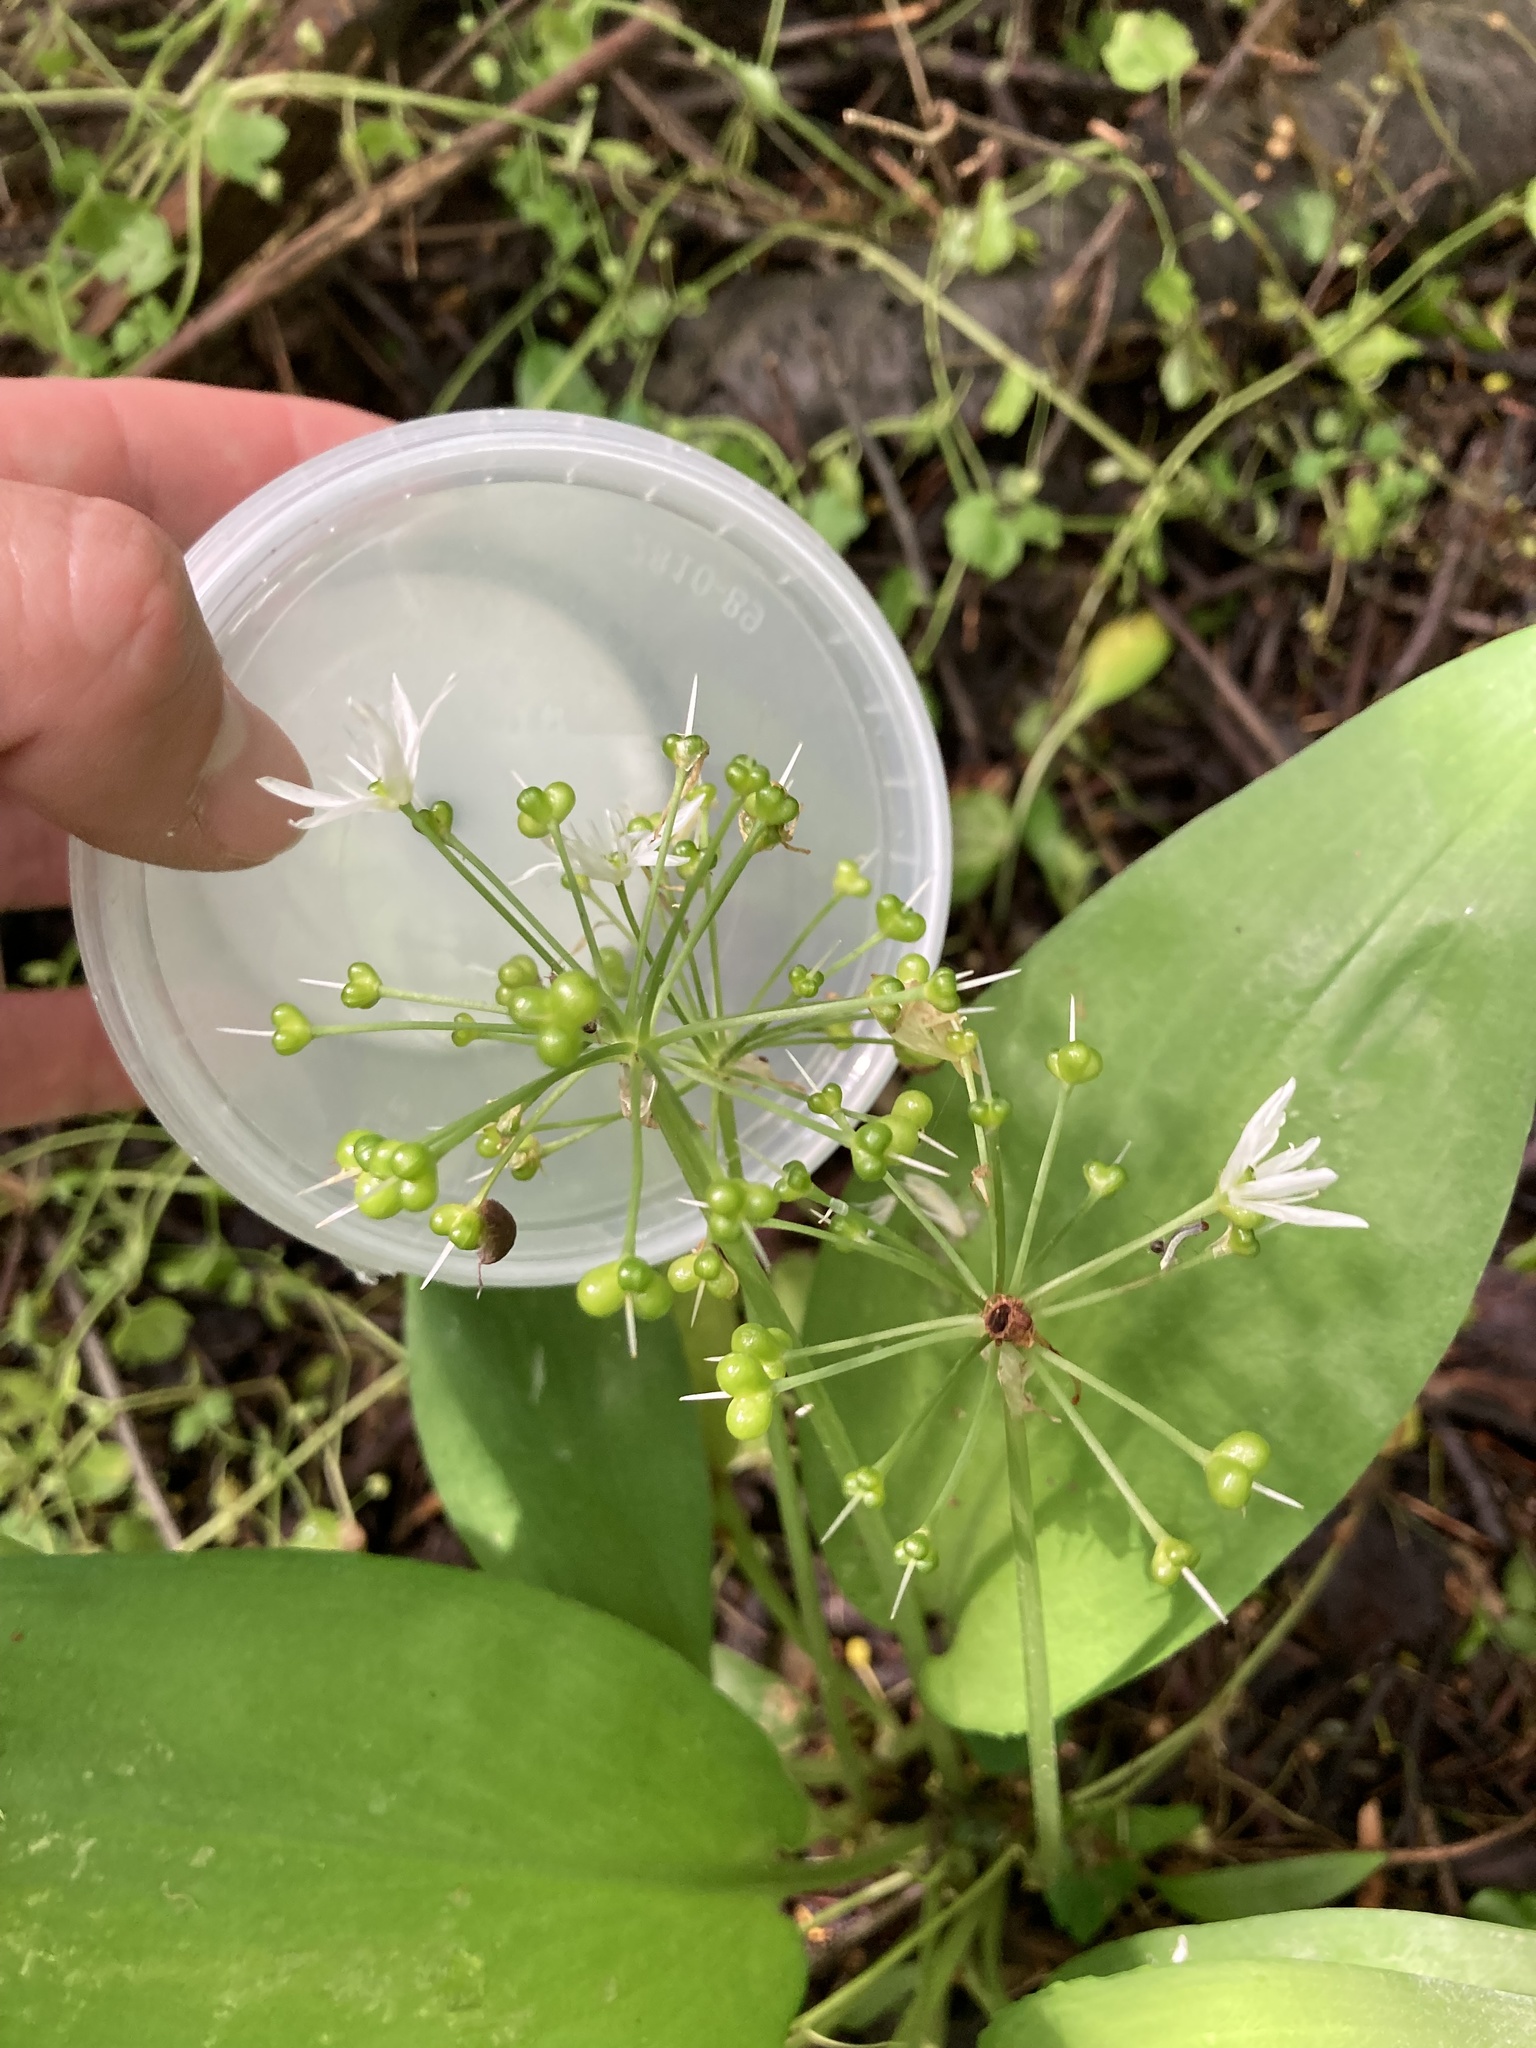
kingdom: Plantae
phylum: Tracheophyta
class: Liliopsida
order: Asparagales
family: Amaryllidaceae
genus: Allium
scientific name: Allium ursinum
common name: Ramsons
